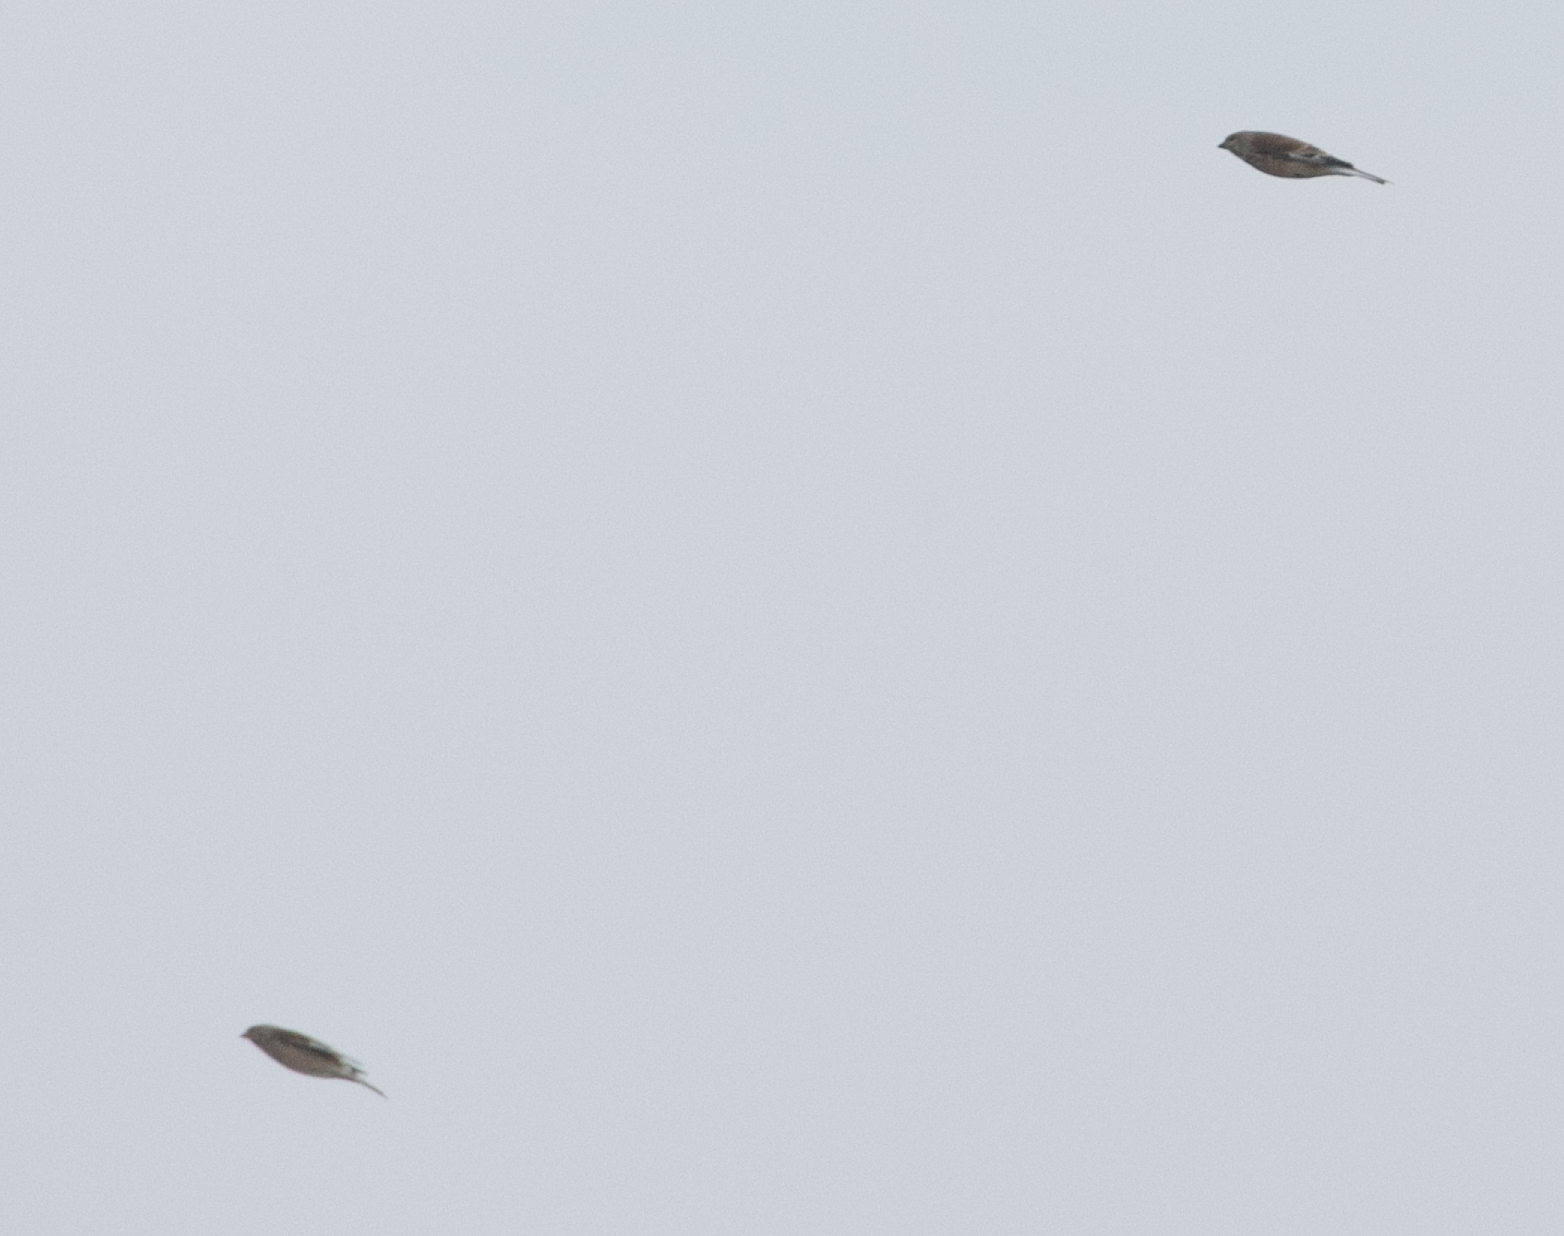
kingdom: Animalia
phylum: Chordata
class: Aves
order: Passeriformes
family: Fringillidae
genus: Linaria
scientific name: Linaria cannabina
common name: Common linnet
